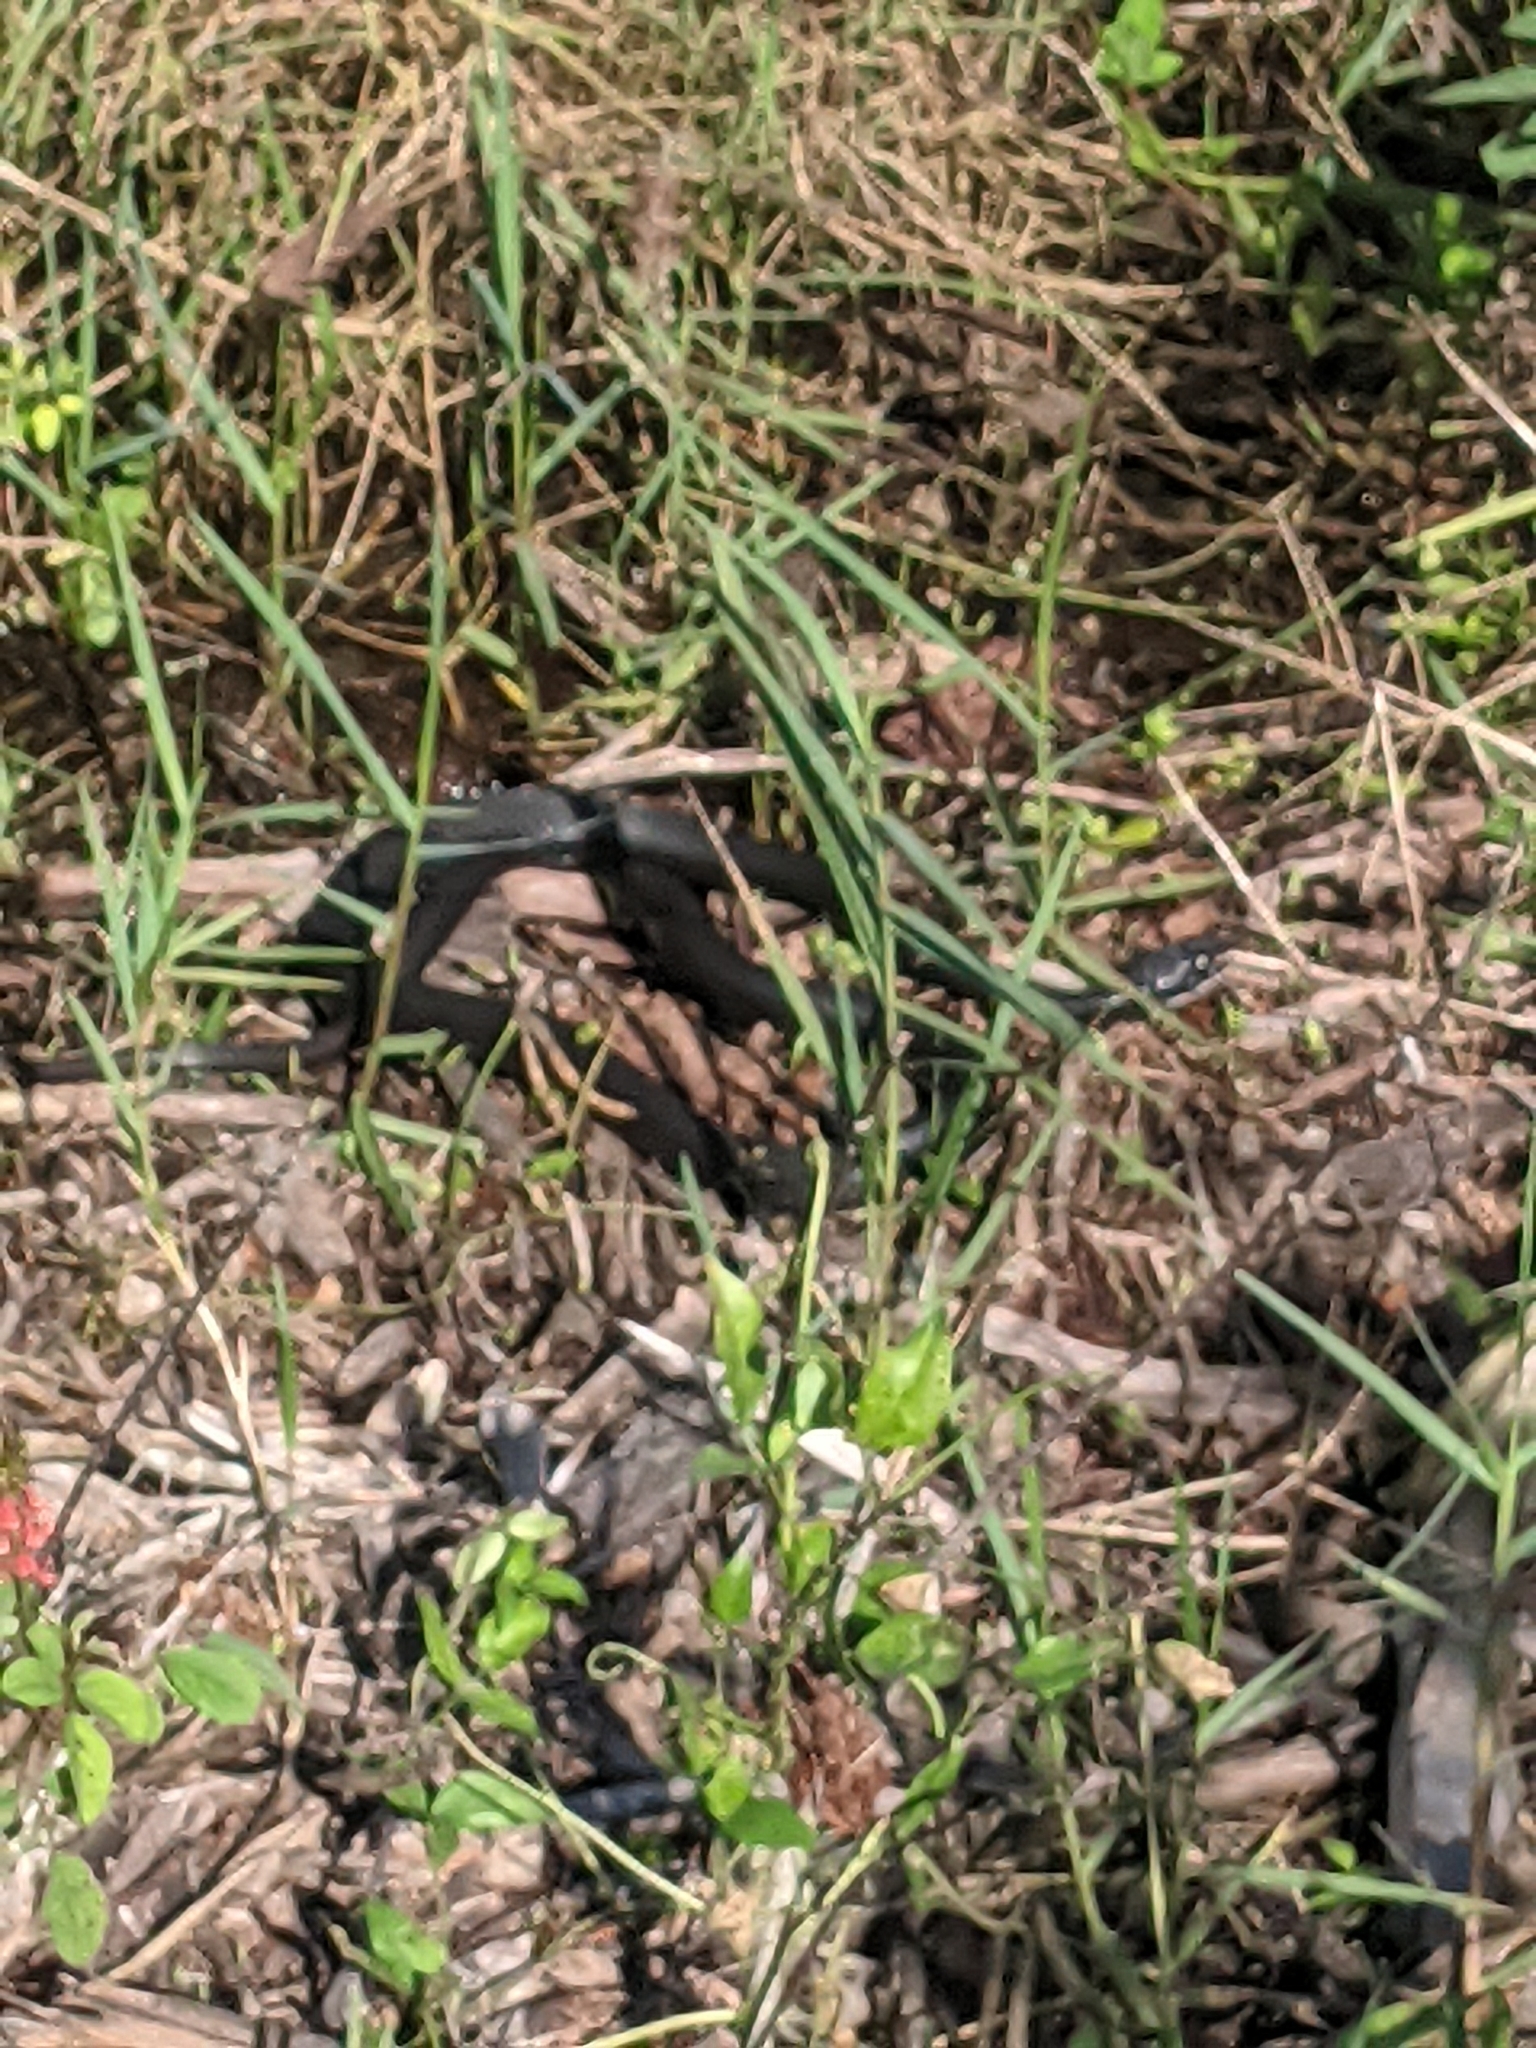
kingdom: Animalia
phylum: Chordata
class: Squamata
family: Colubridae
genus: Coluber
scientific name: Coluber constrictor
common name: Eastern racer
